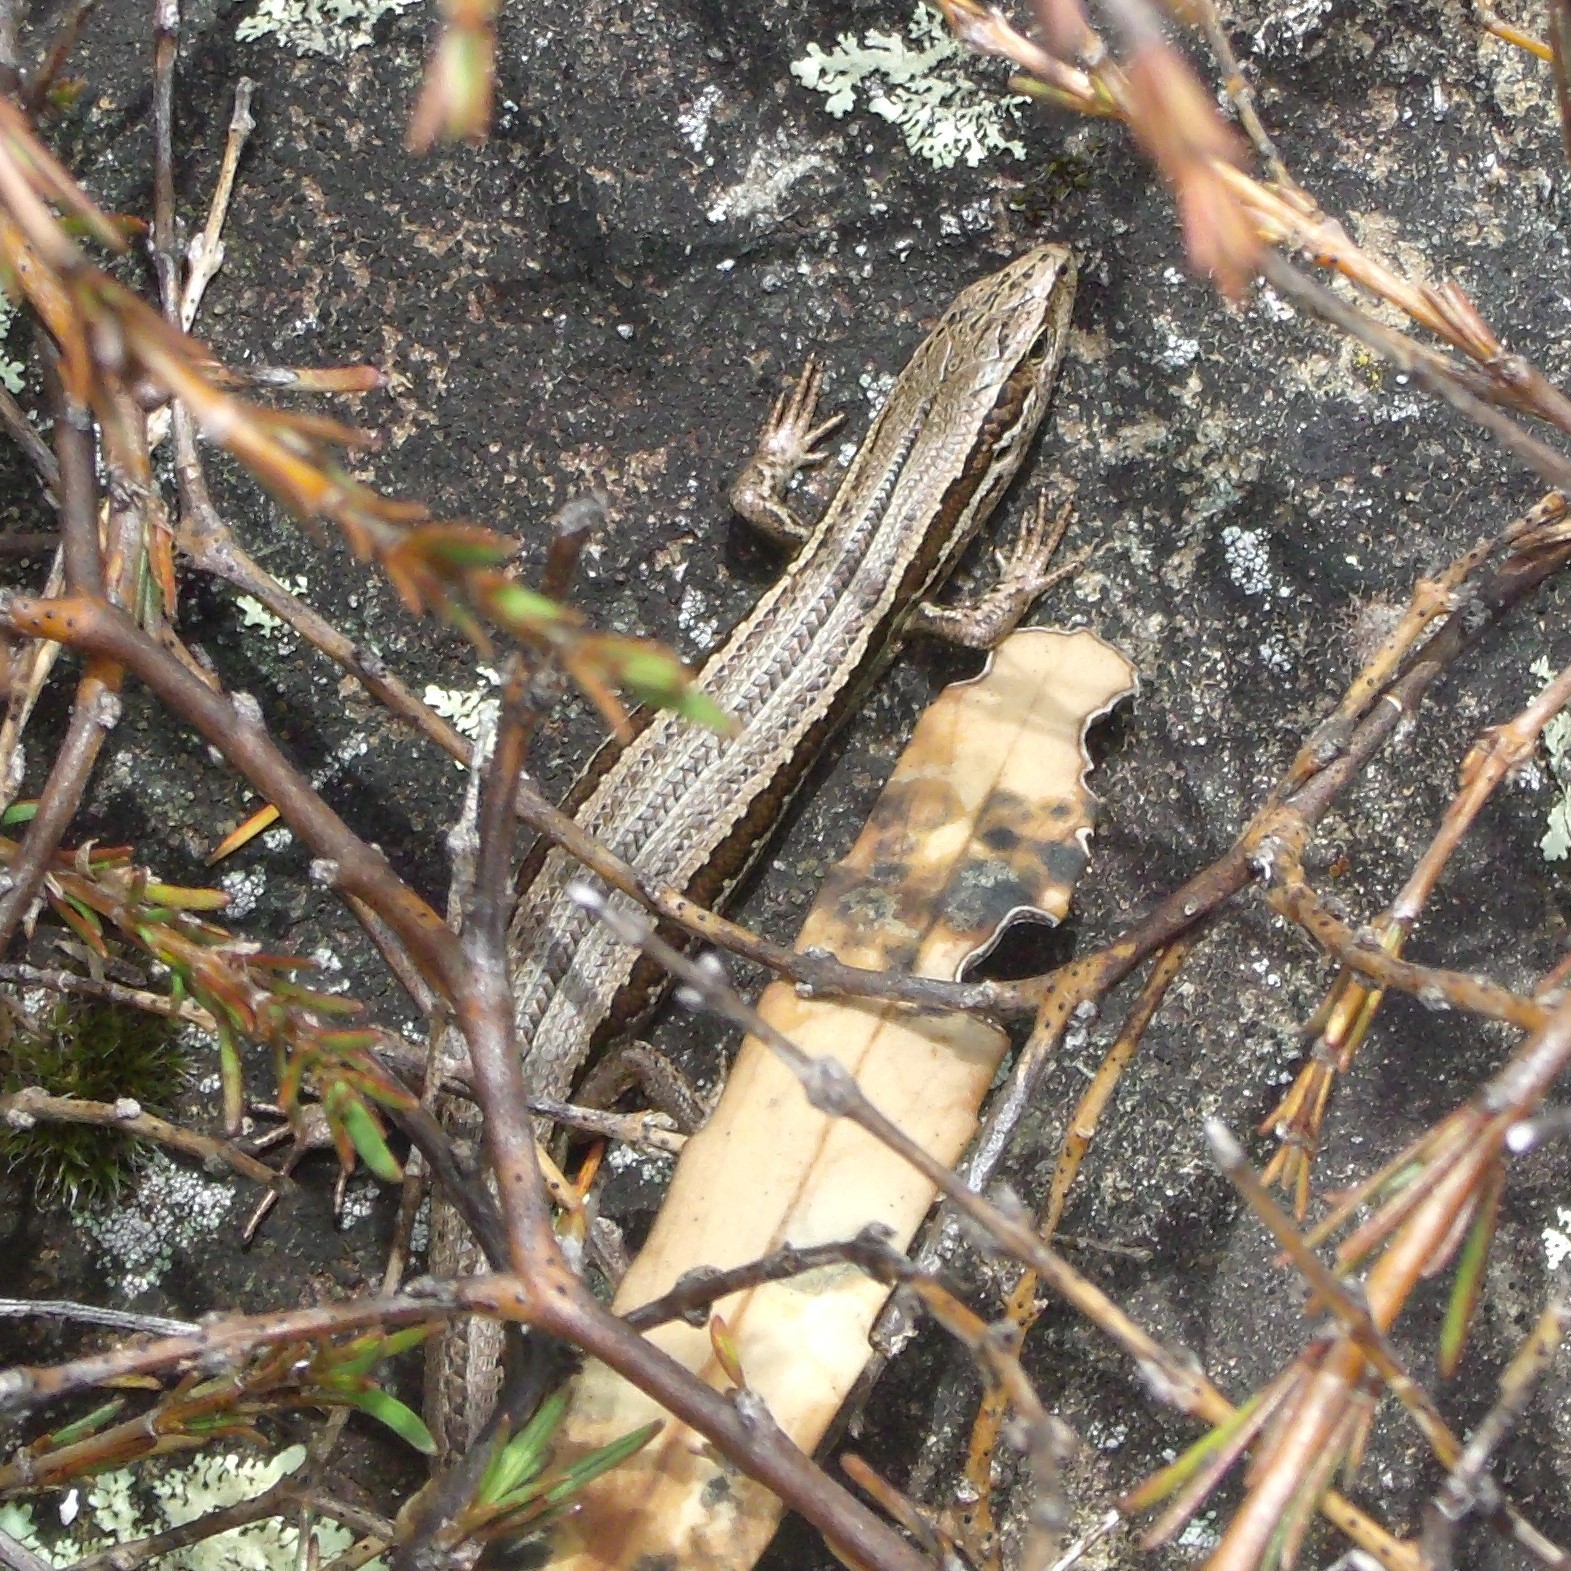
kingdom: Animalia
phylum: Chordata
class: Squamata
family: Scincidae
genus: Oligosoma
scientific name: Oligosoma polychroma
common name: Common new zealand skink
